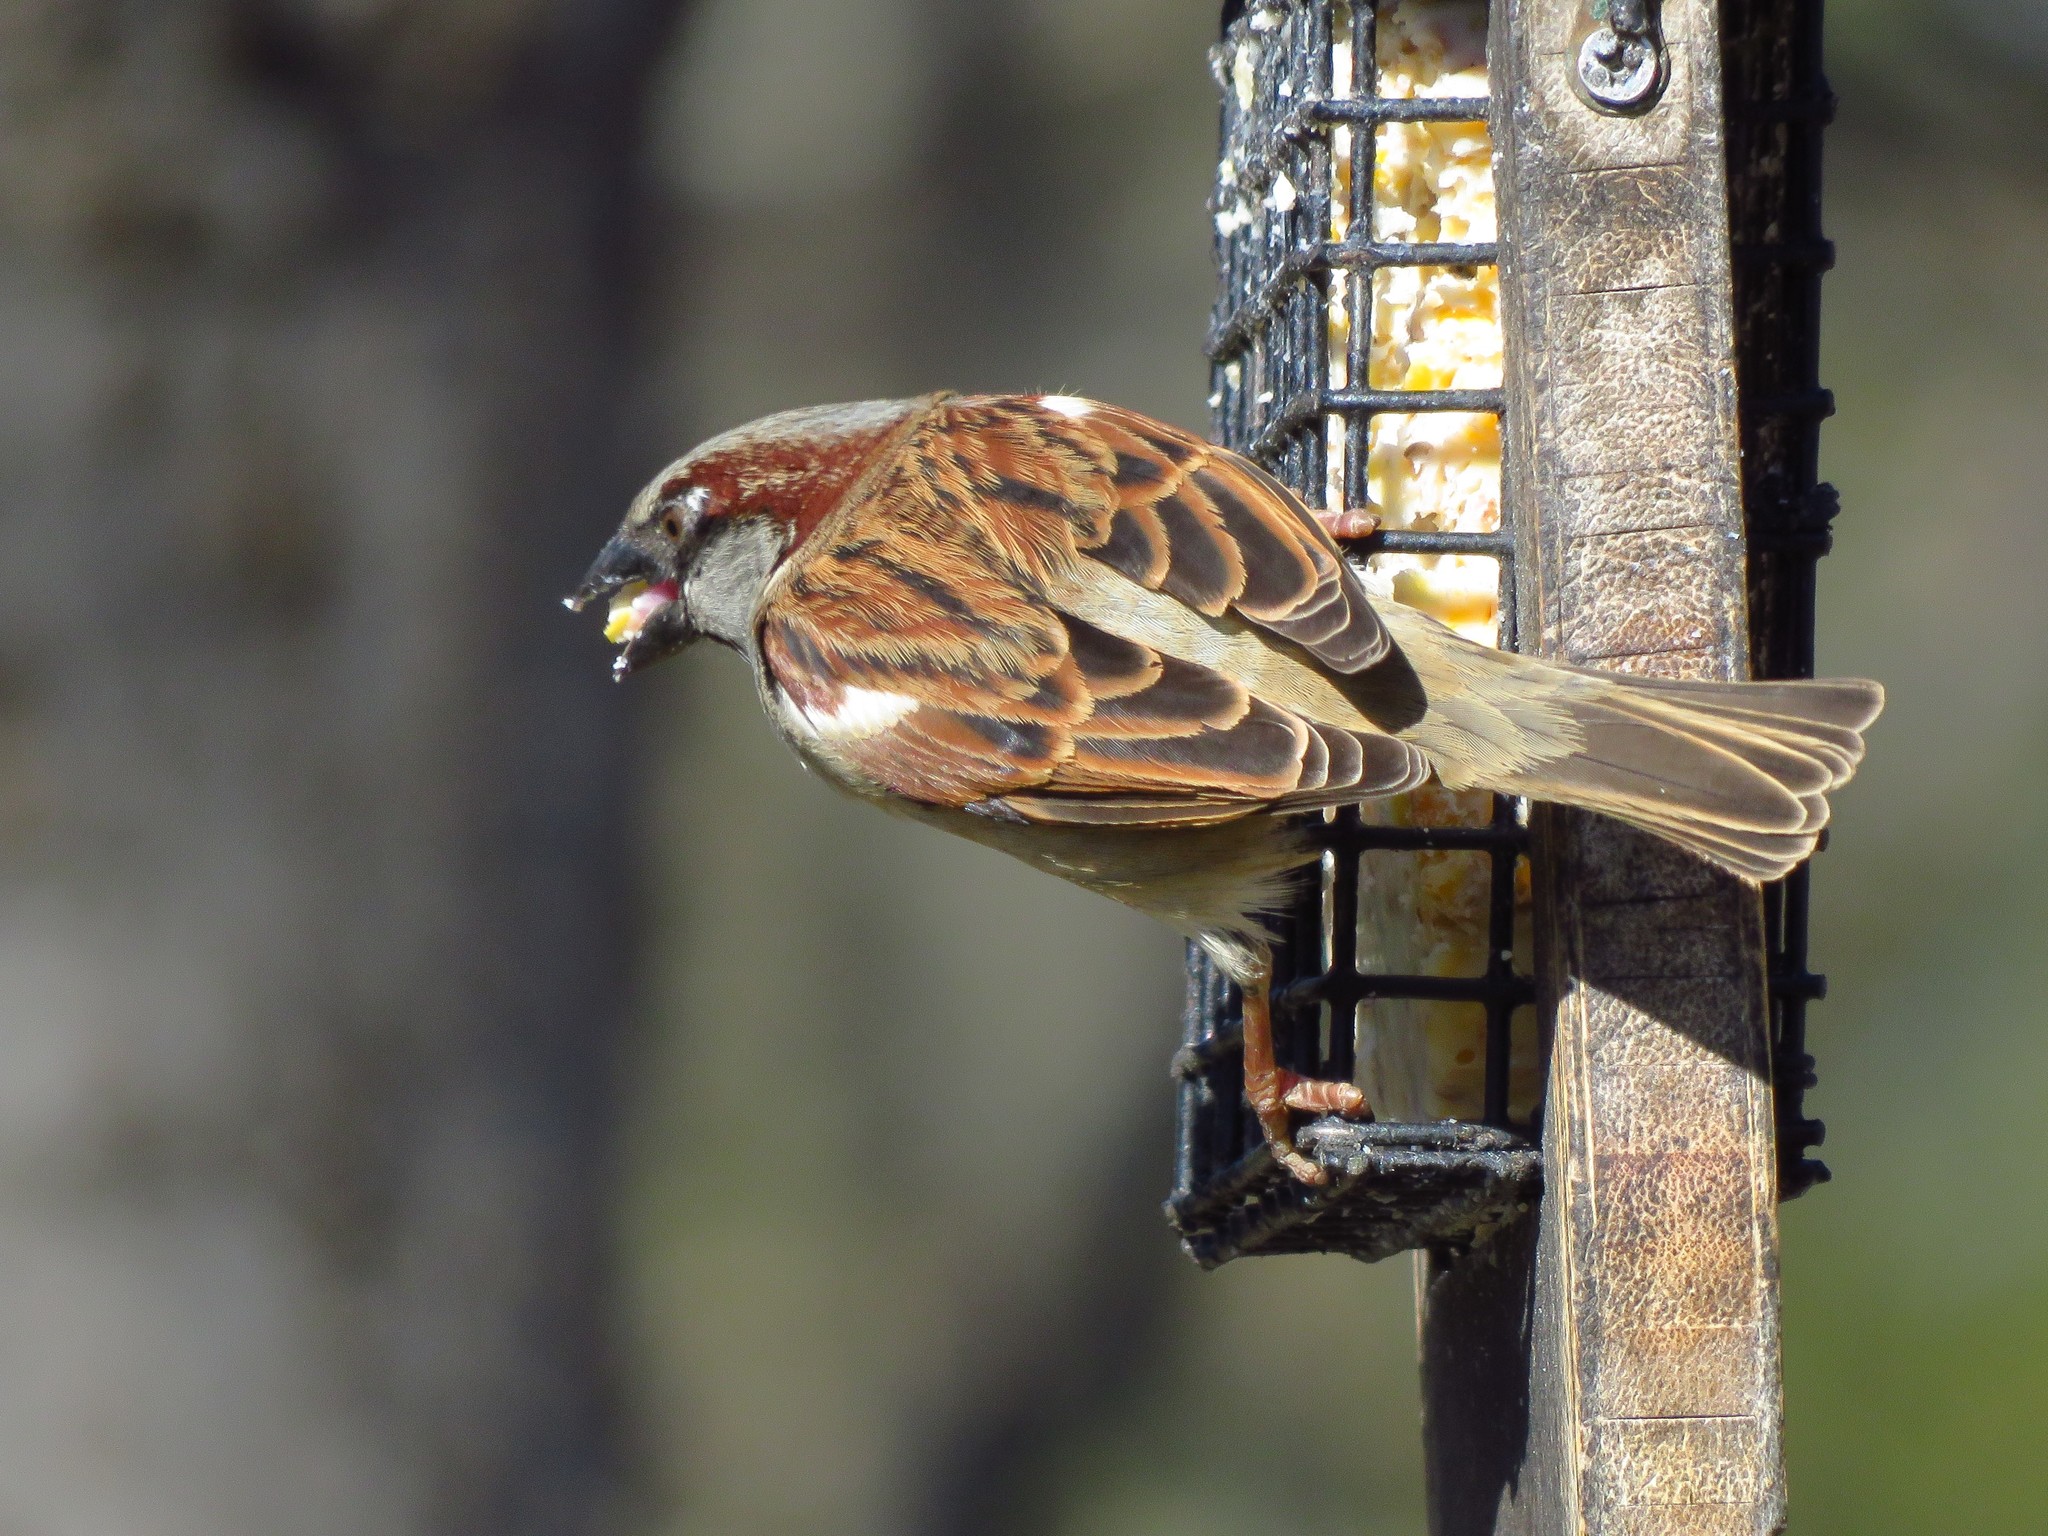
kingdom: Animalia
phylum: Chordata
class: Aves
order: Passeriformes
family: Passeridae
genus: Passer
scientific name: Passer domesticus
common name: House sparrow
